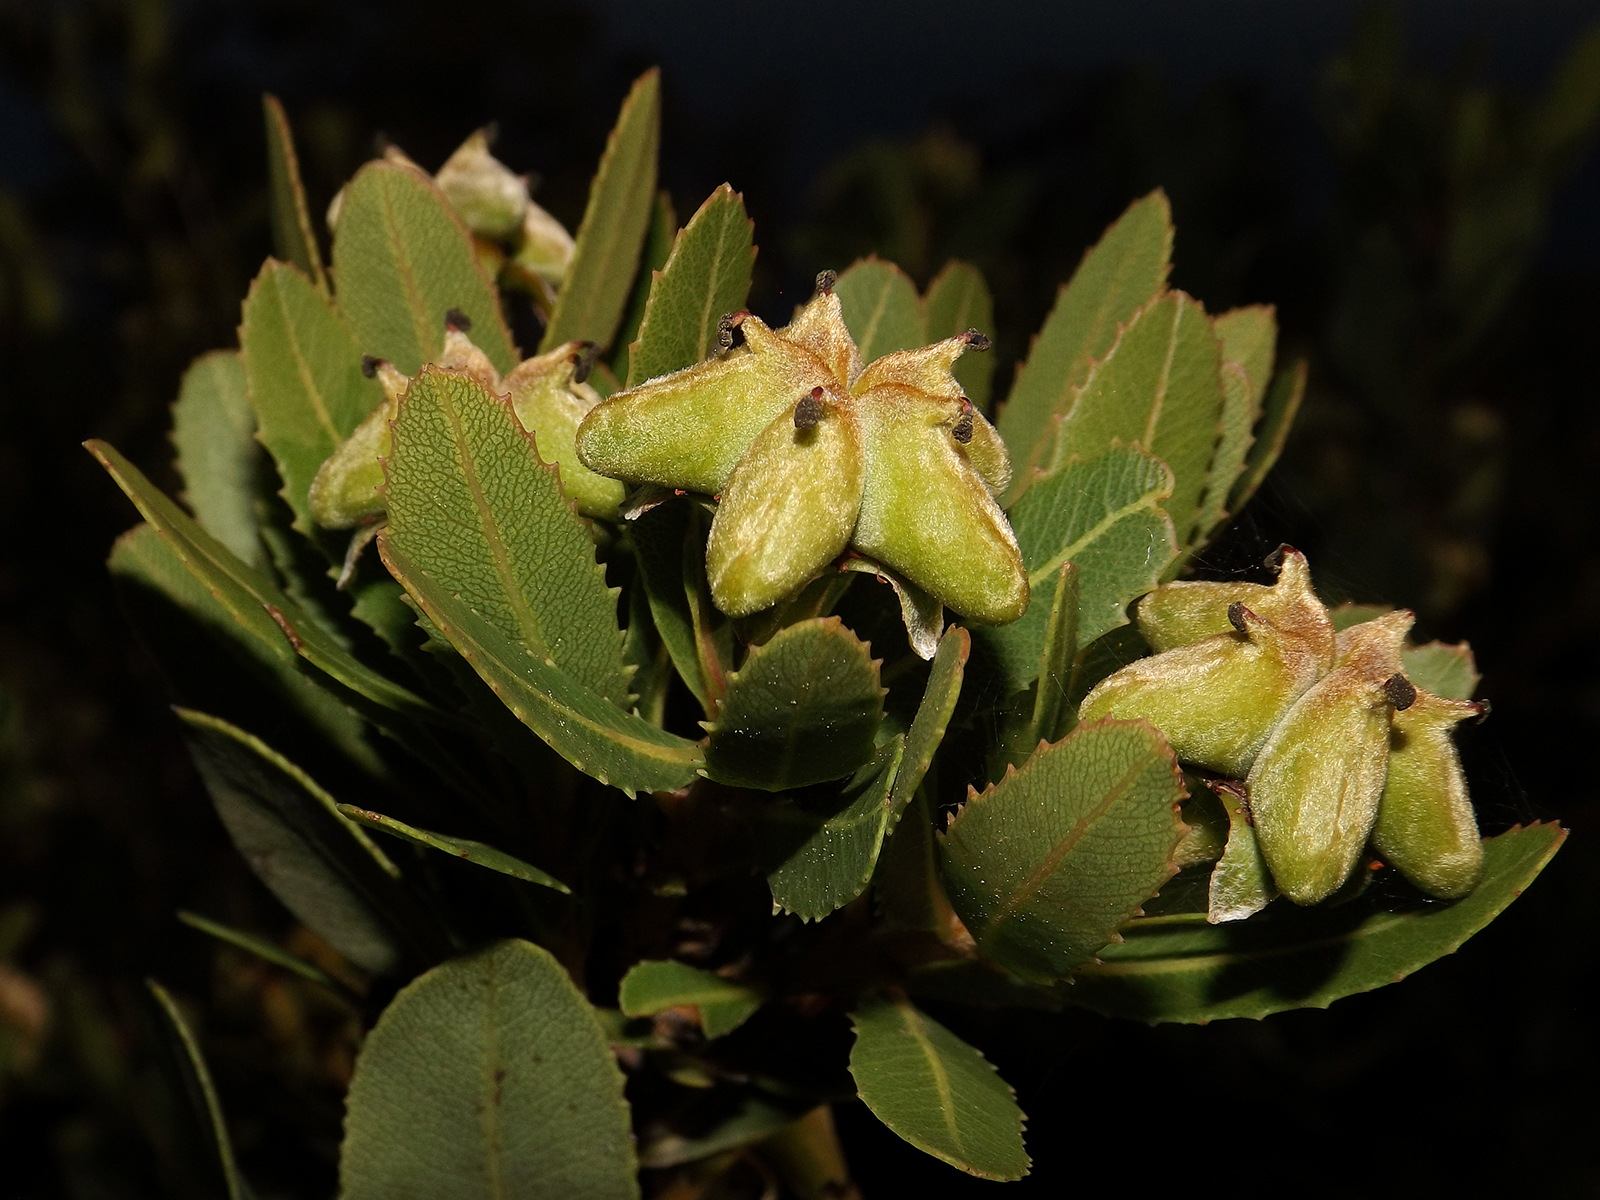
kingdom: Plantae
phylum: Tracheophyta
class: Magnoliopsida
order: Rosales
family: Rosaceae
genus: Kageneckia
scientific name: Kageneckia oblonga
